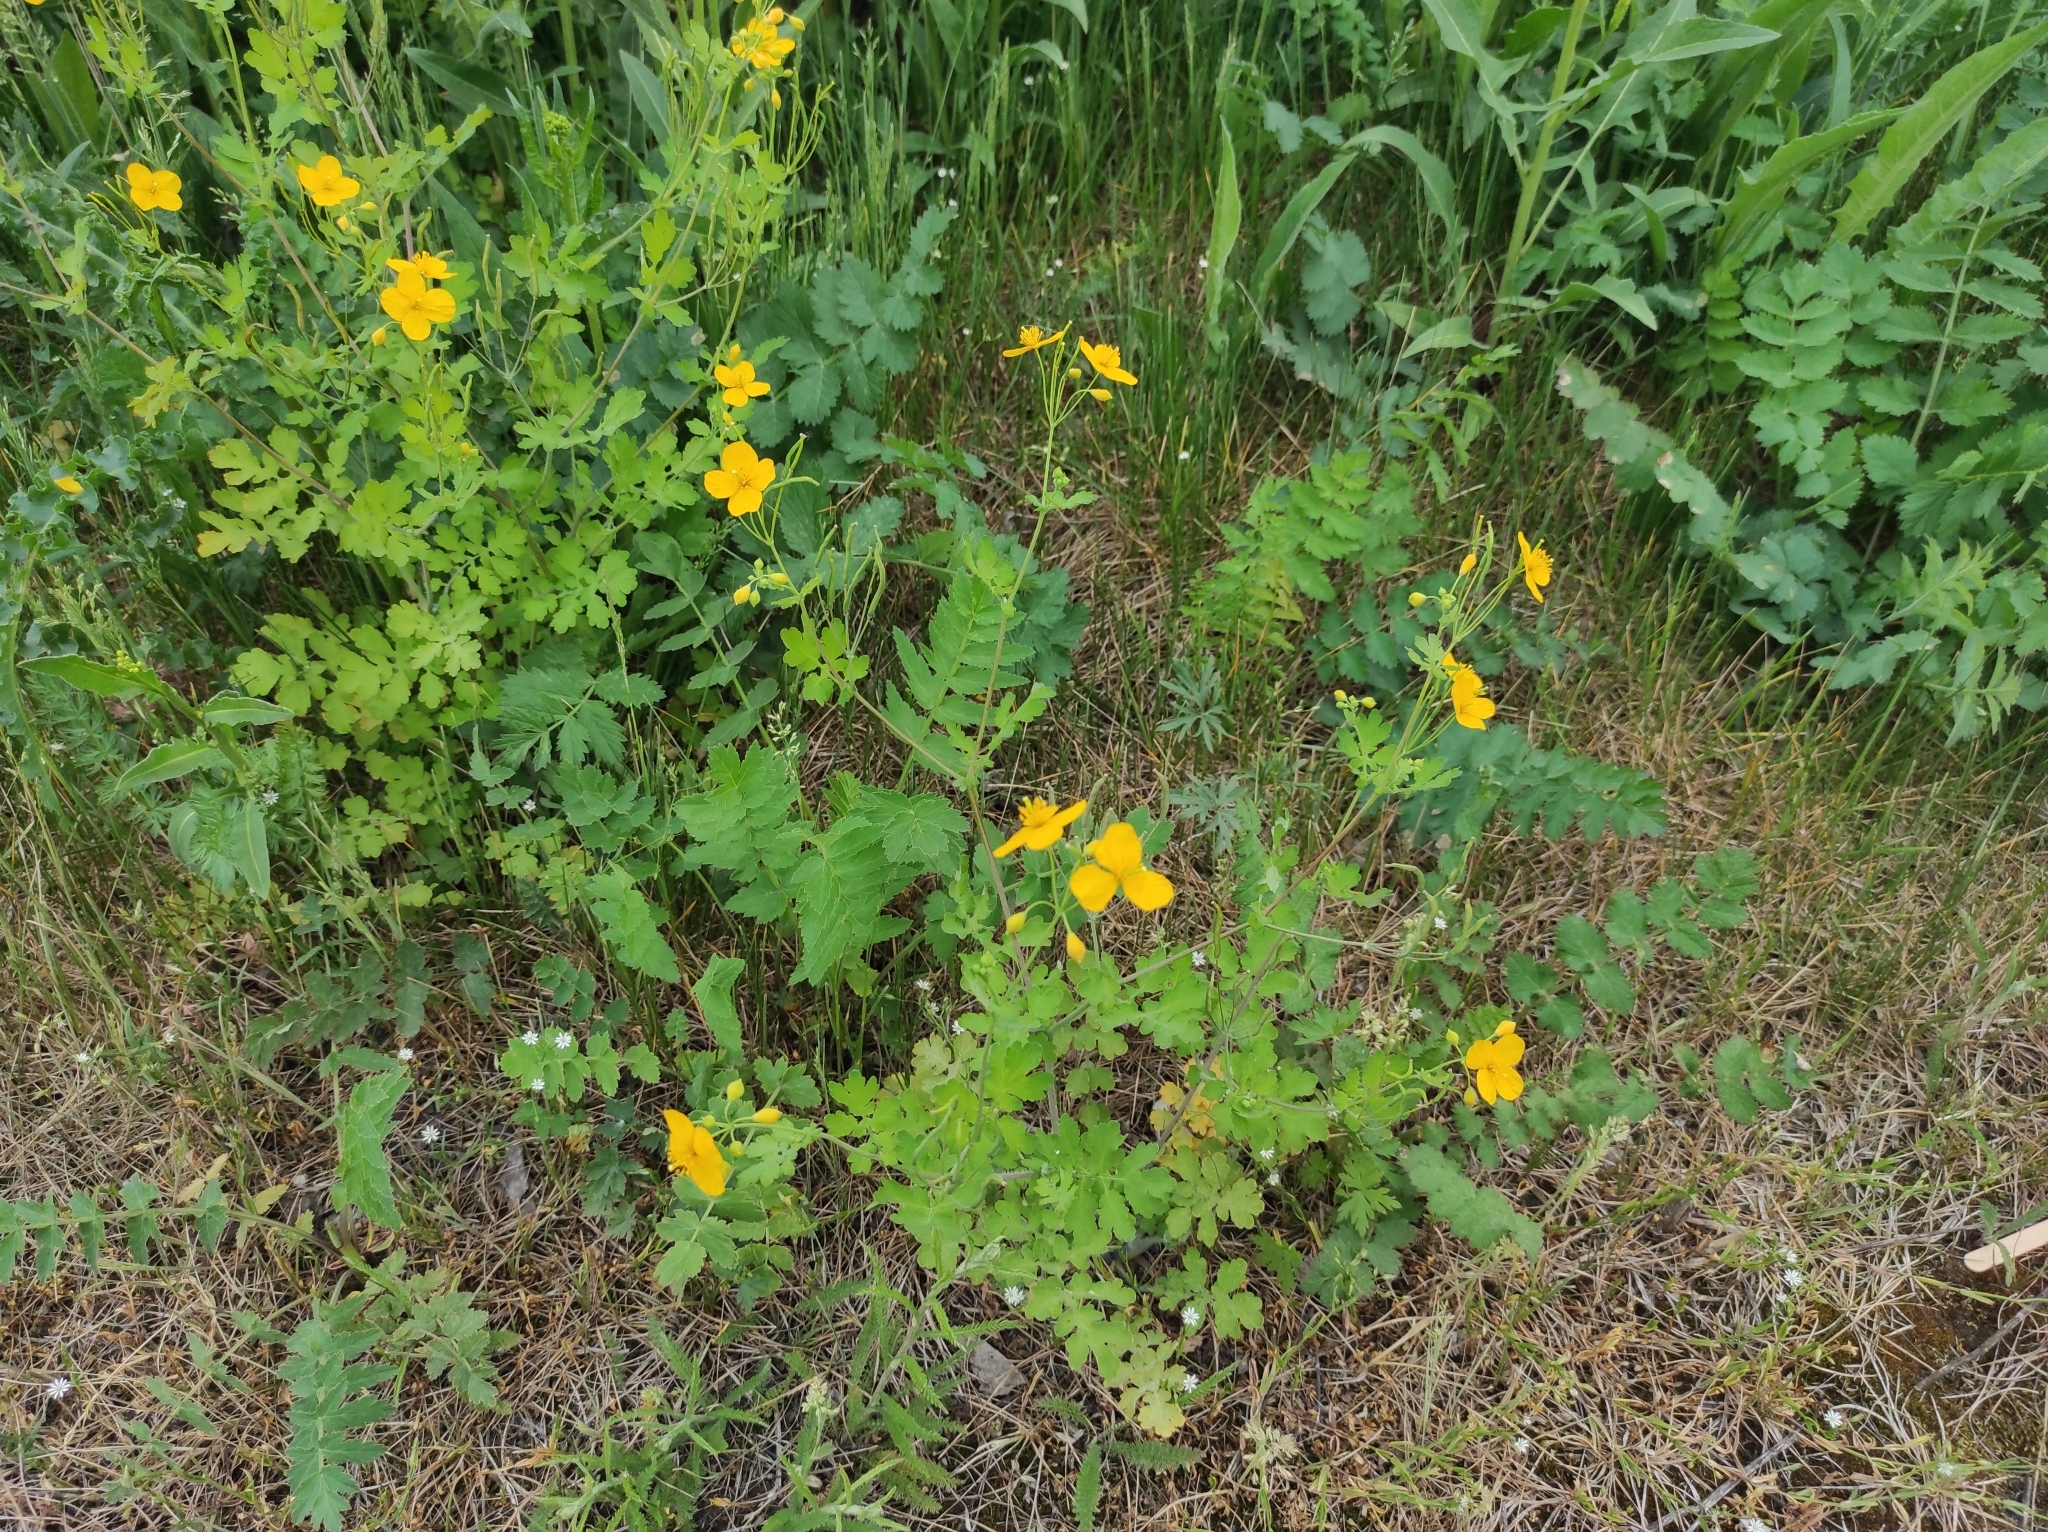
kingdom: Plantae
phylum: Tracheophyta
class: Magnoliopsida
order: Ranunculales
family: Papaveraceae
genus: Chelidonium
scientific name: Chelidonium majus
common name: Greater celandine
